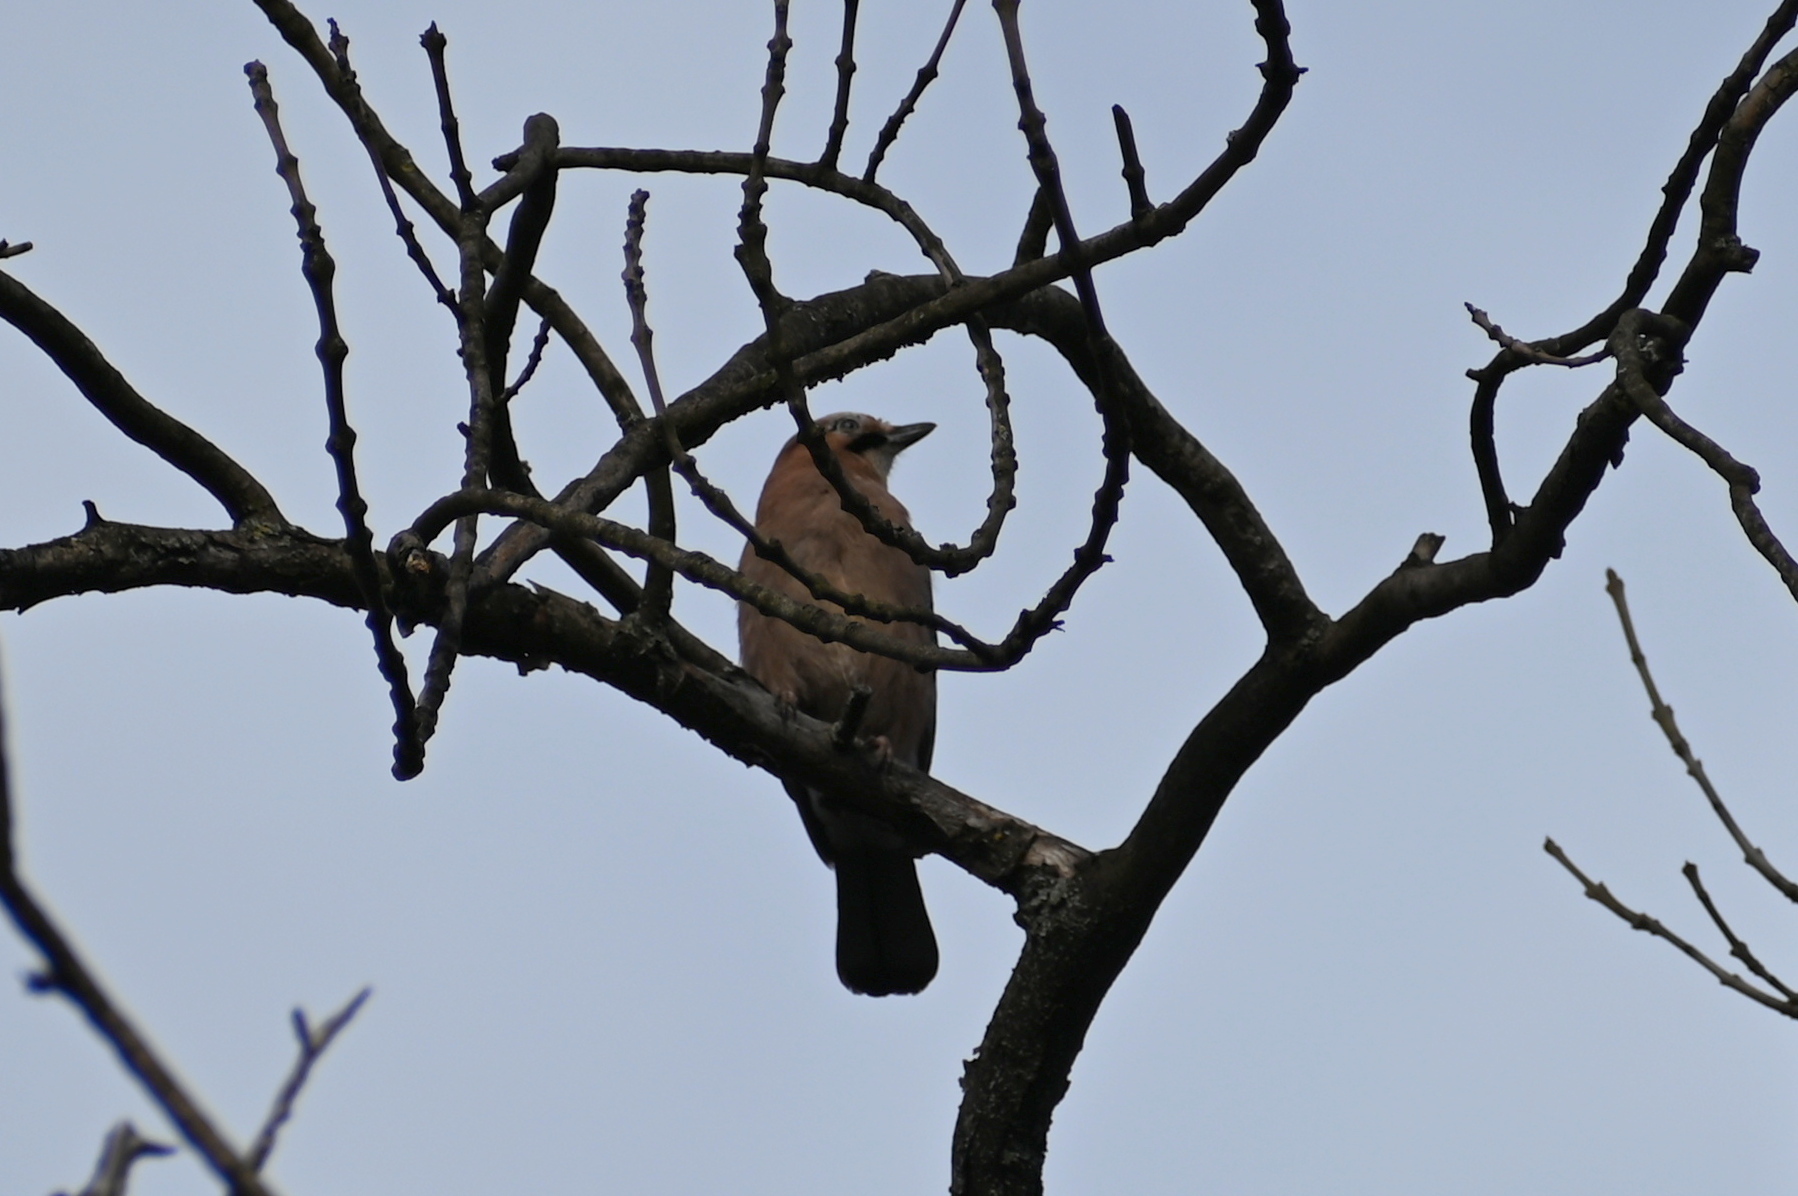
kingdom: Animalia
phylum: Chordata
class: Aves
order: Passeriformes
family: Corvidae
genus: Garrulus
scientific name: Garrulus glandarius
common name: Eurasian jay
